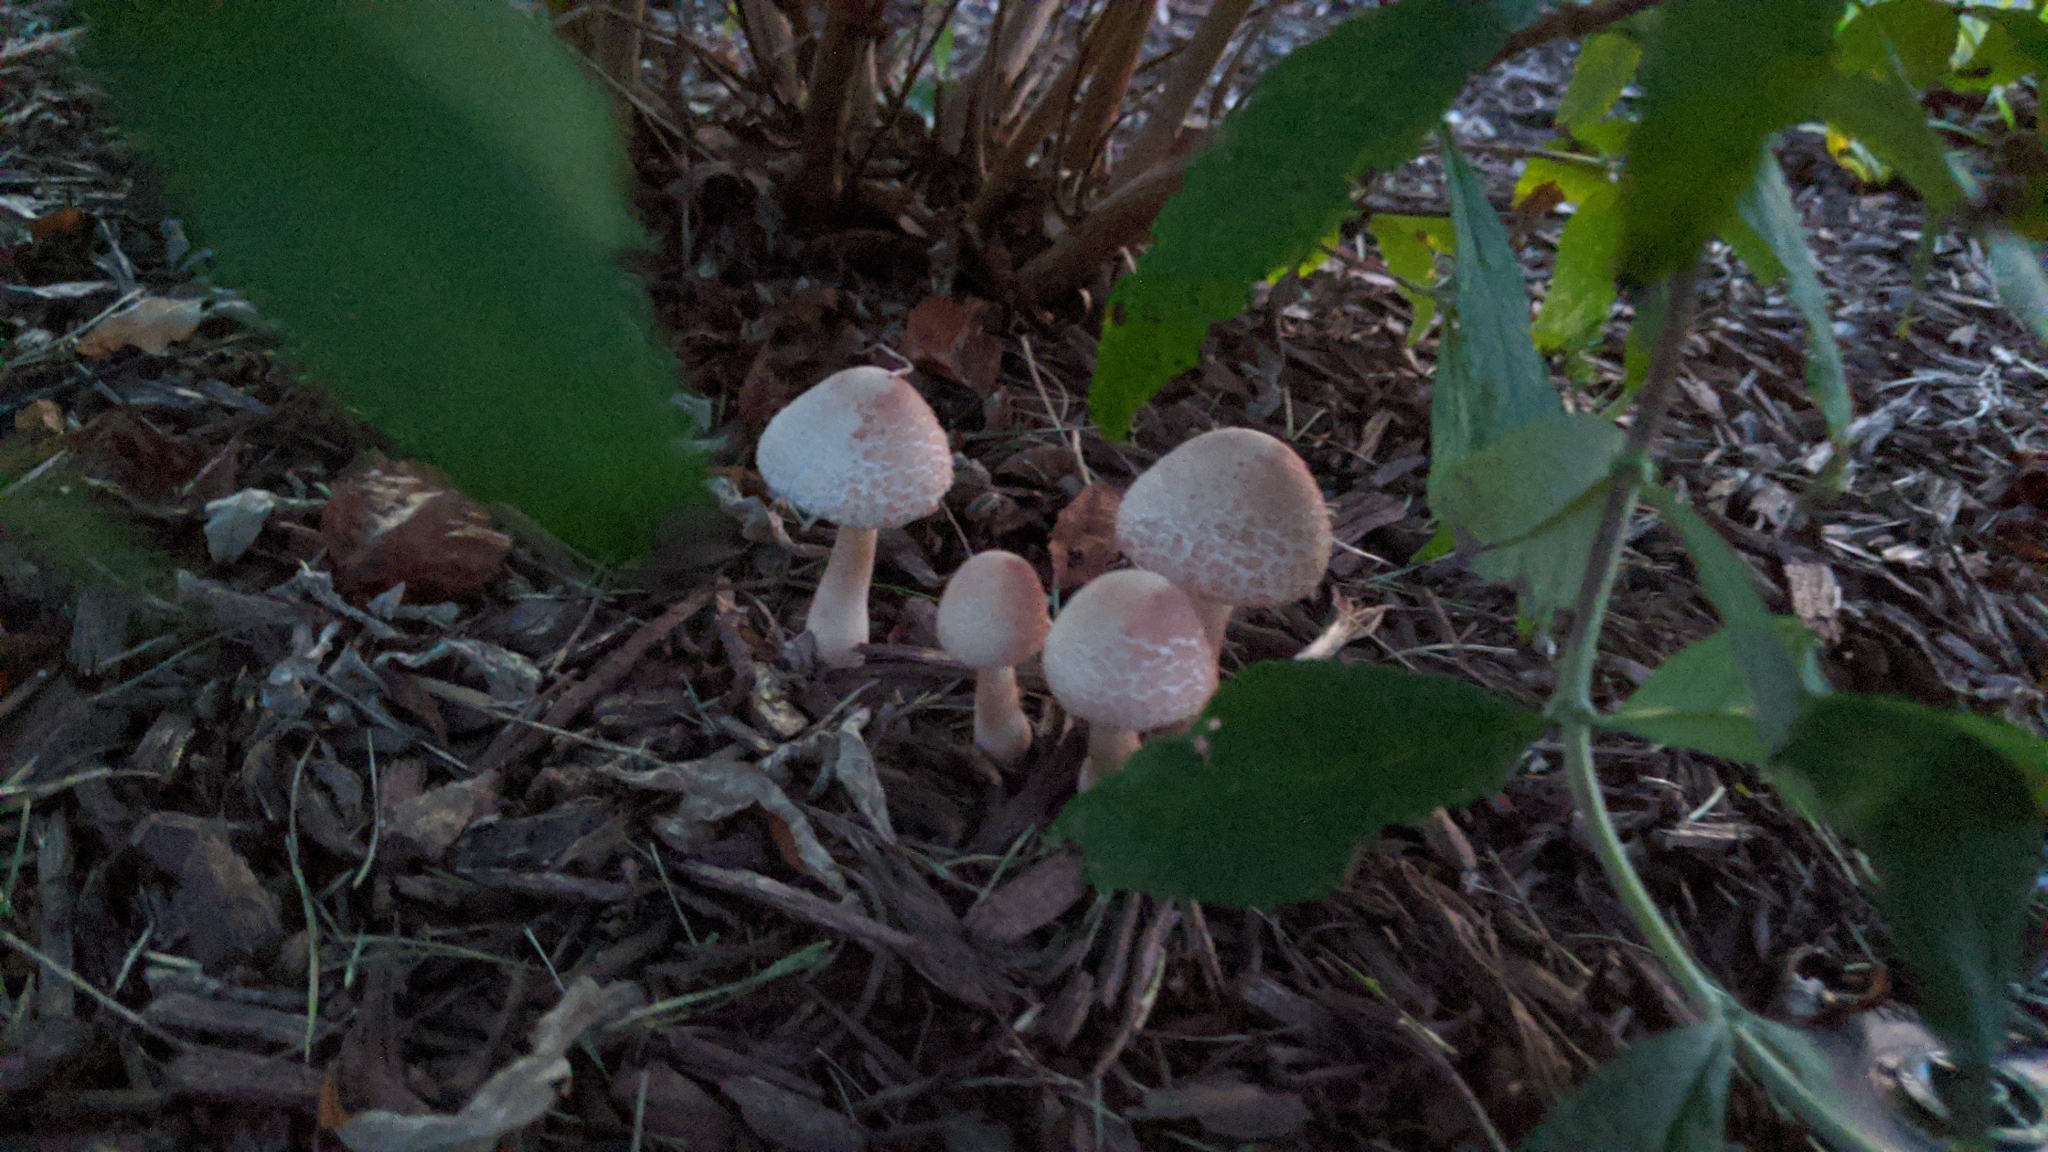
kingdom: Fungi
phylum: Basidiomycota
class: Agaricomycetes
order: Agaricales
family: Agaricaceae
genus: Leucoagaricus
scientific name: Leucoagaricus americanus
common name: Reddening lepiota
